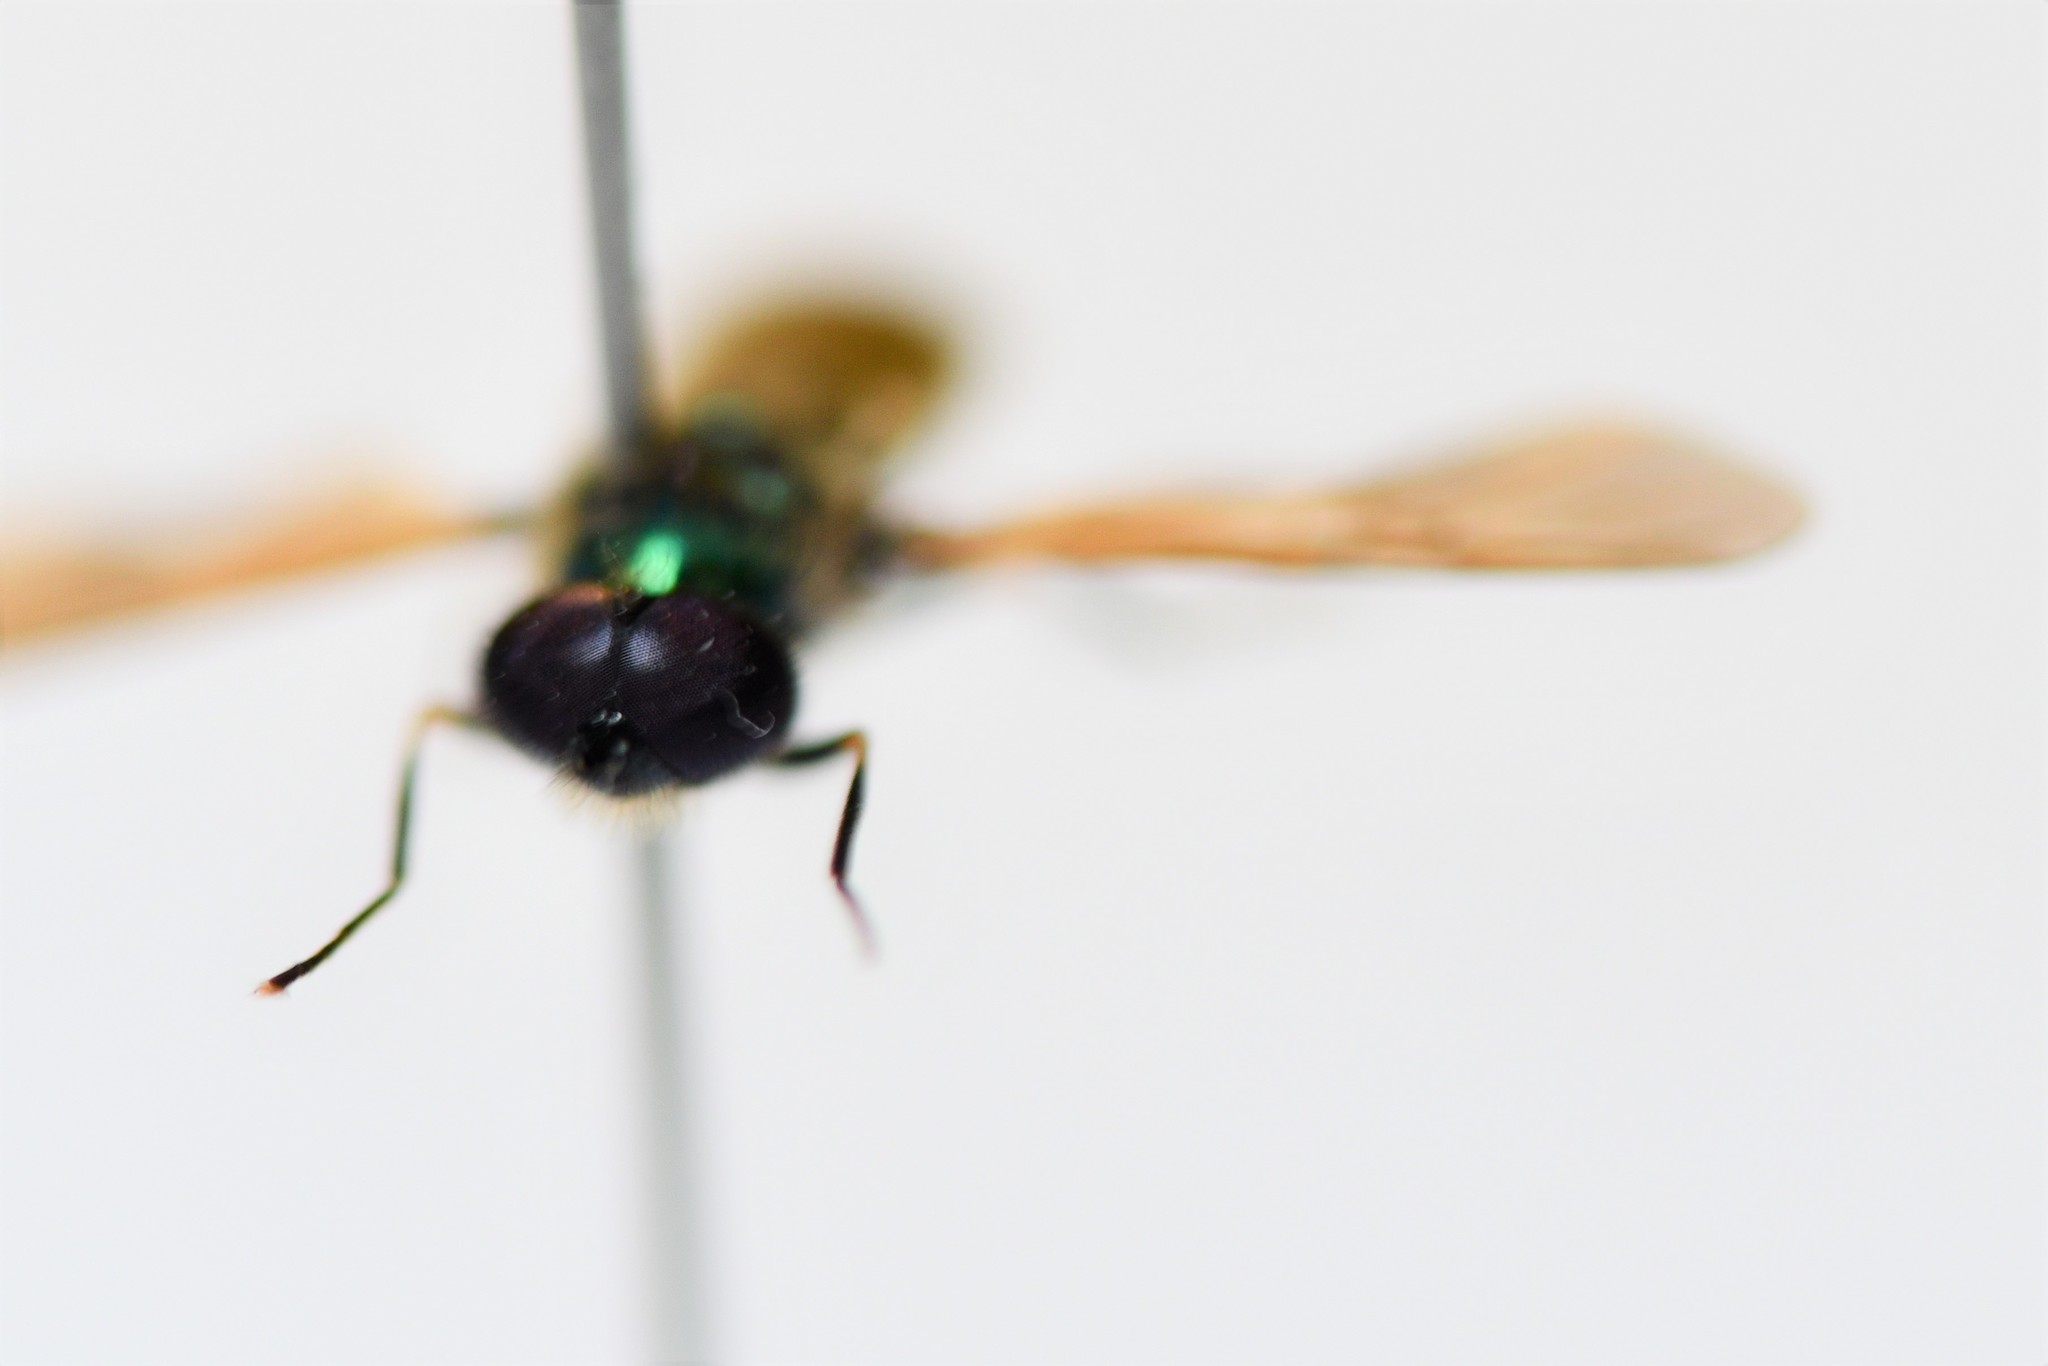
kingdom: Animalia
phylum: Arthropoda
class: Insecta
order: Diptera
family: Stratiomyidae
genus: Chloromyia
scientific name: Chloromyia formosa
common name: Soldier fly
